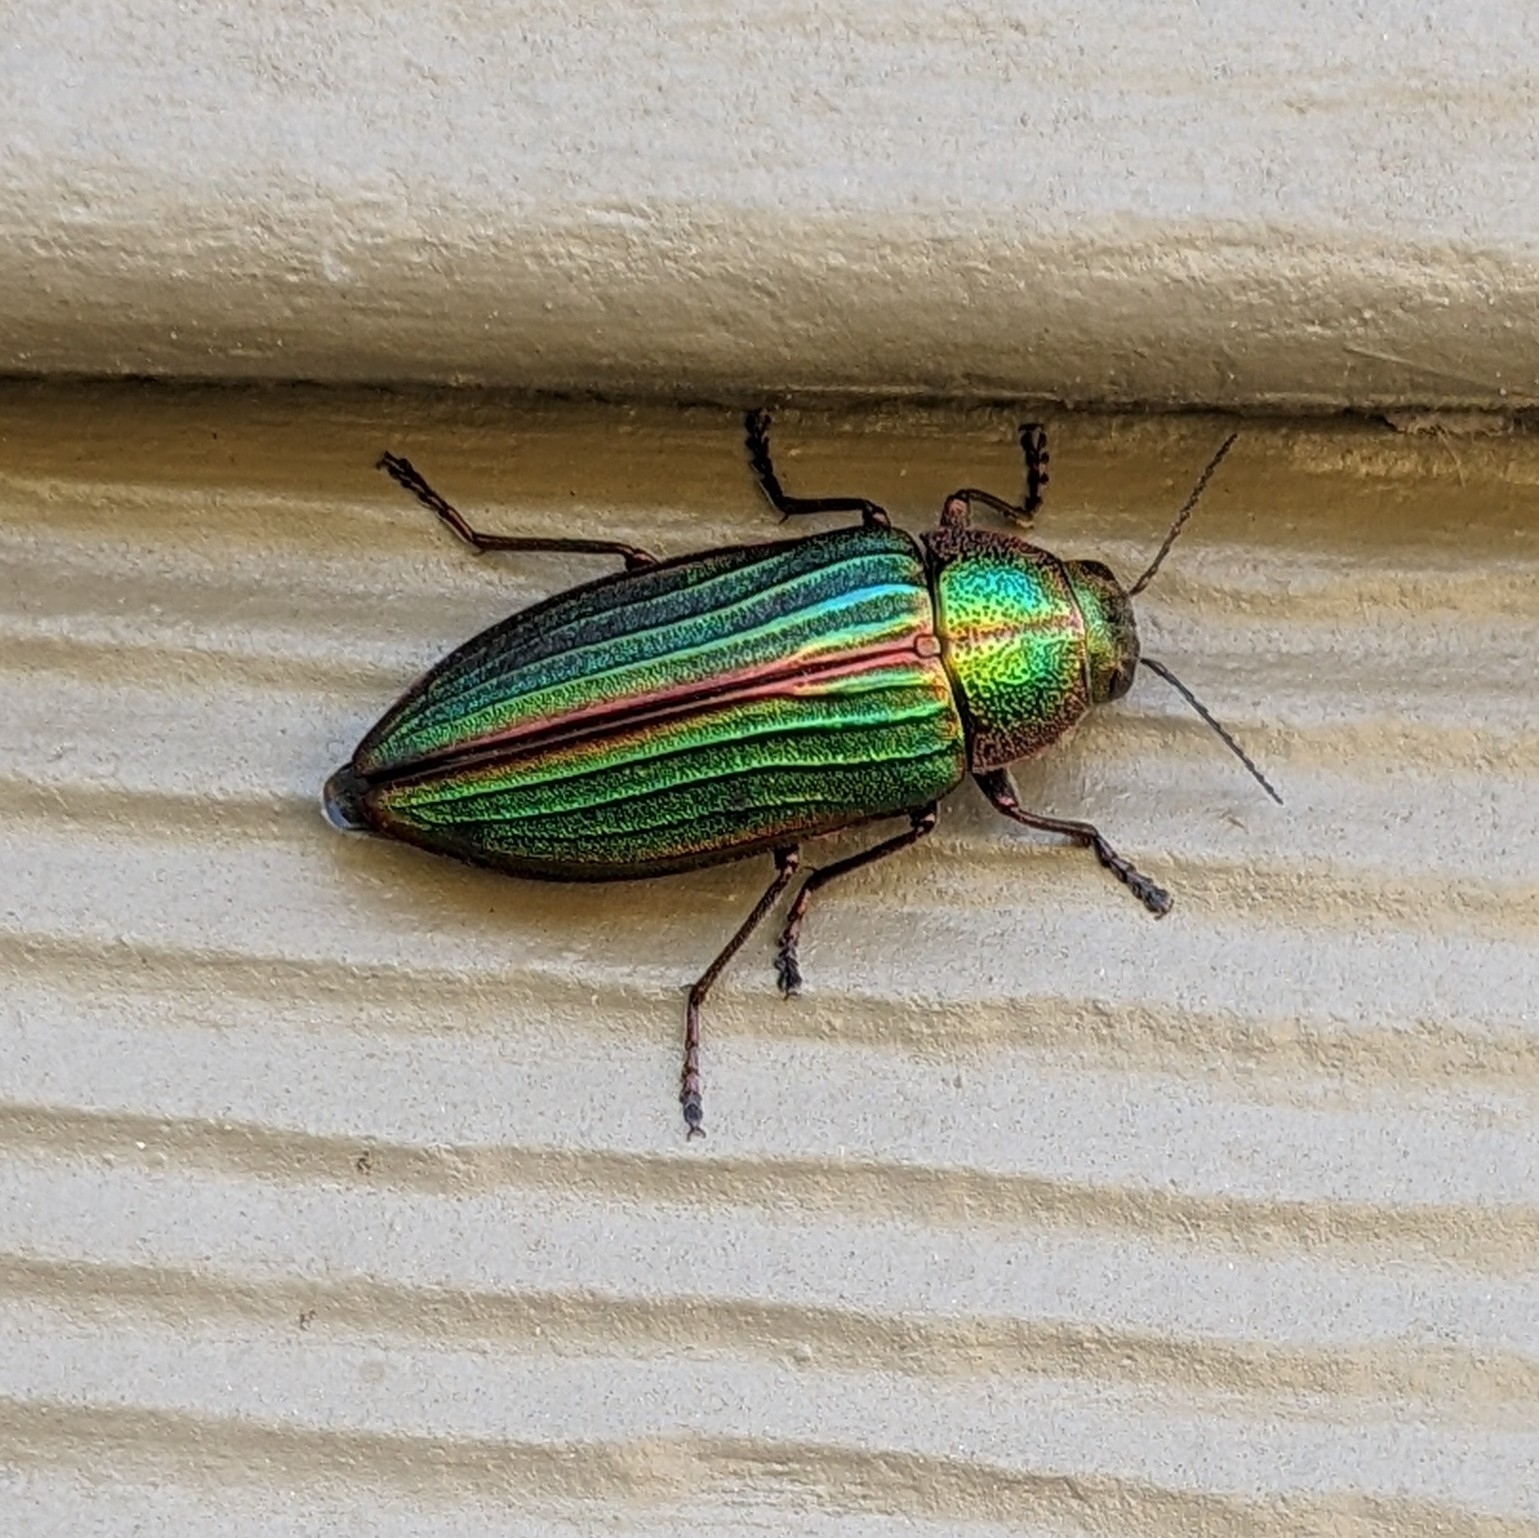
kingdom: Animalia
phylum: Arthropoda
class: Insecta
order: Coleoptera
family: Buprestidae
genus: Buprestis
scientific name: Buprestis aurulenta
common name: Golden buprestid
